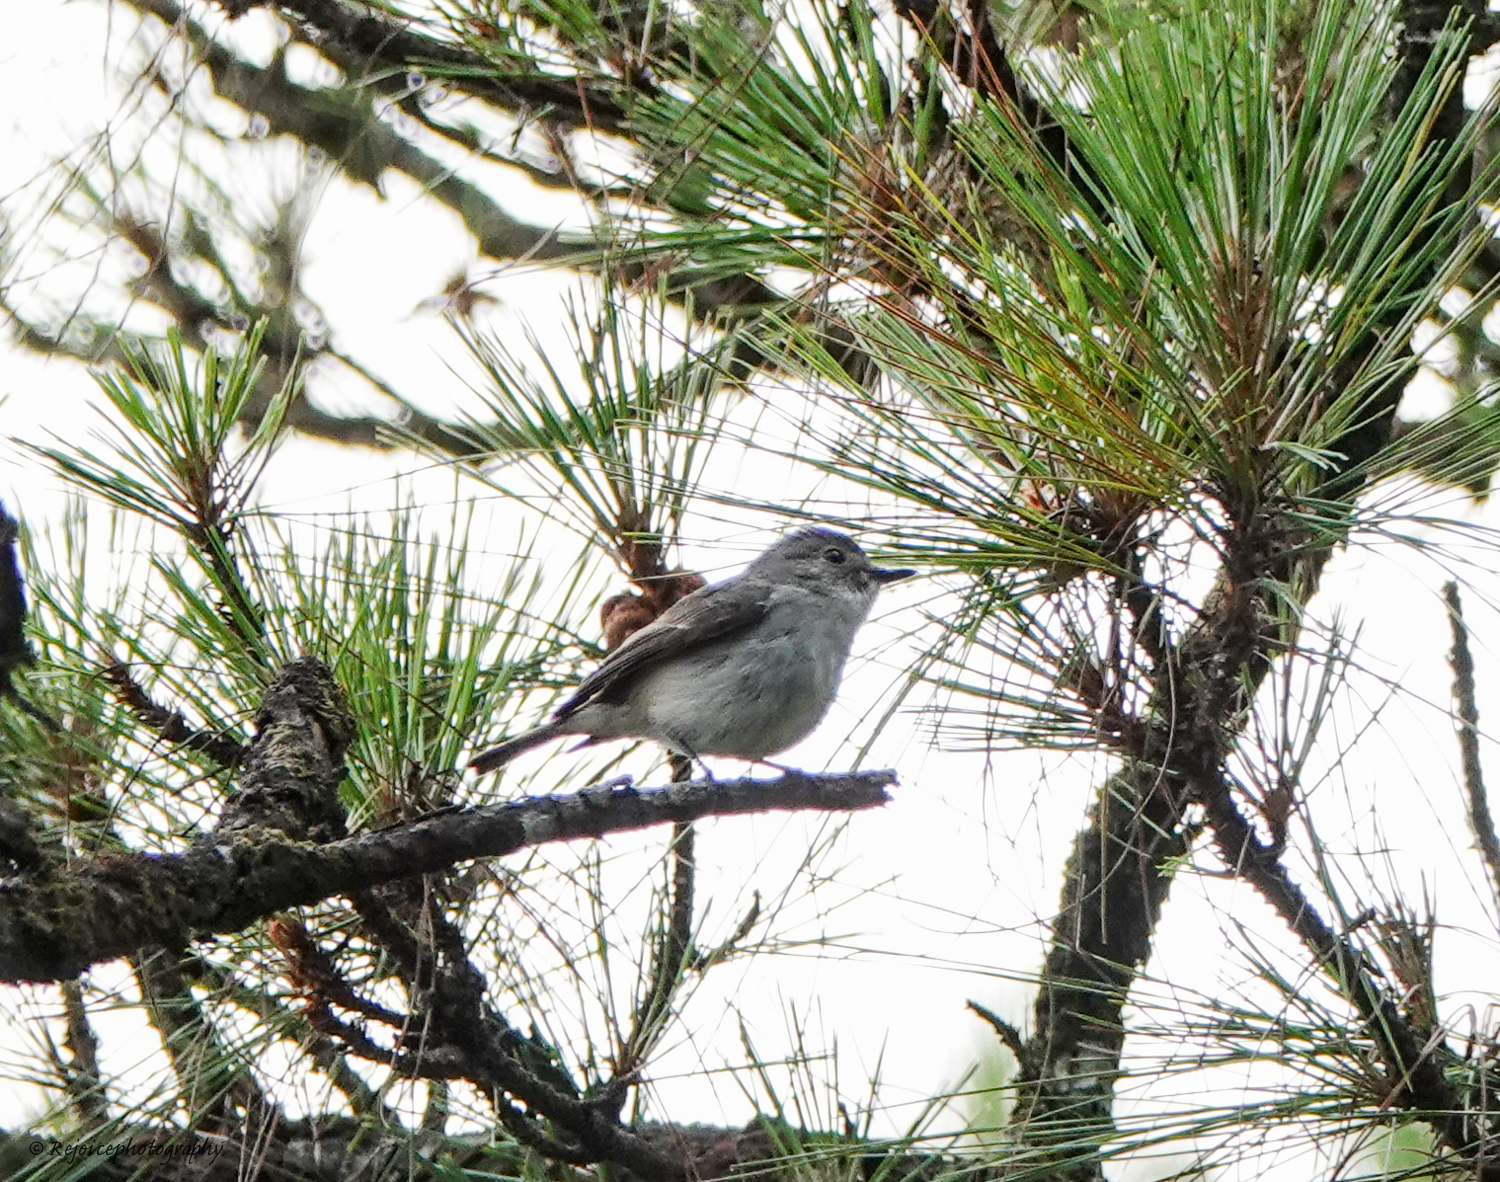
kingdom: Animalia
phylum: Chordata
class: Aves
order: Passeriformes
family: Muscicapidae
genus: Ficedula
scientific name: Ficedula westermanni
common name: Little pied flycatcher
